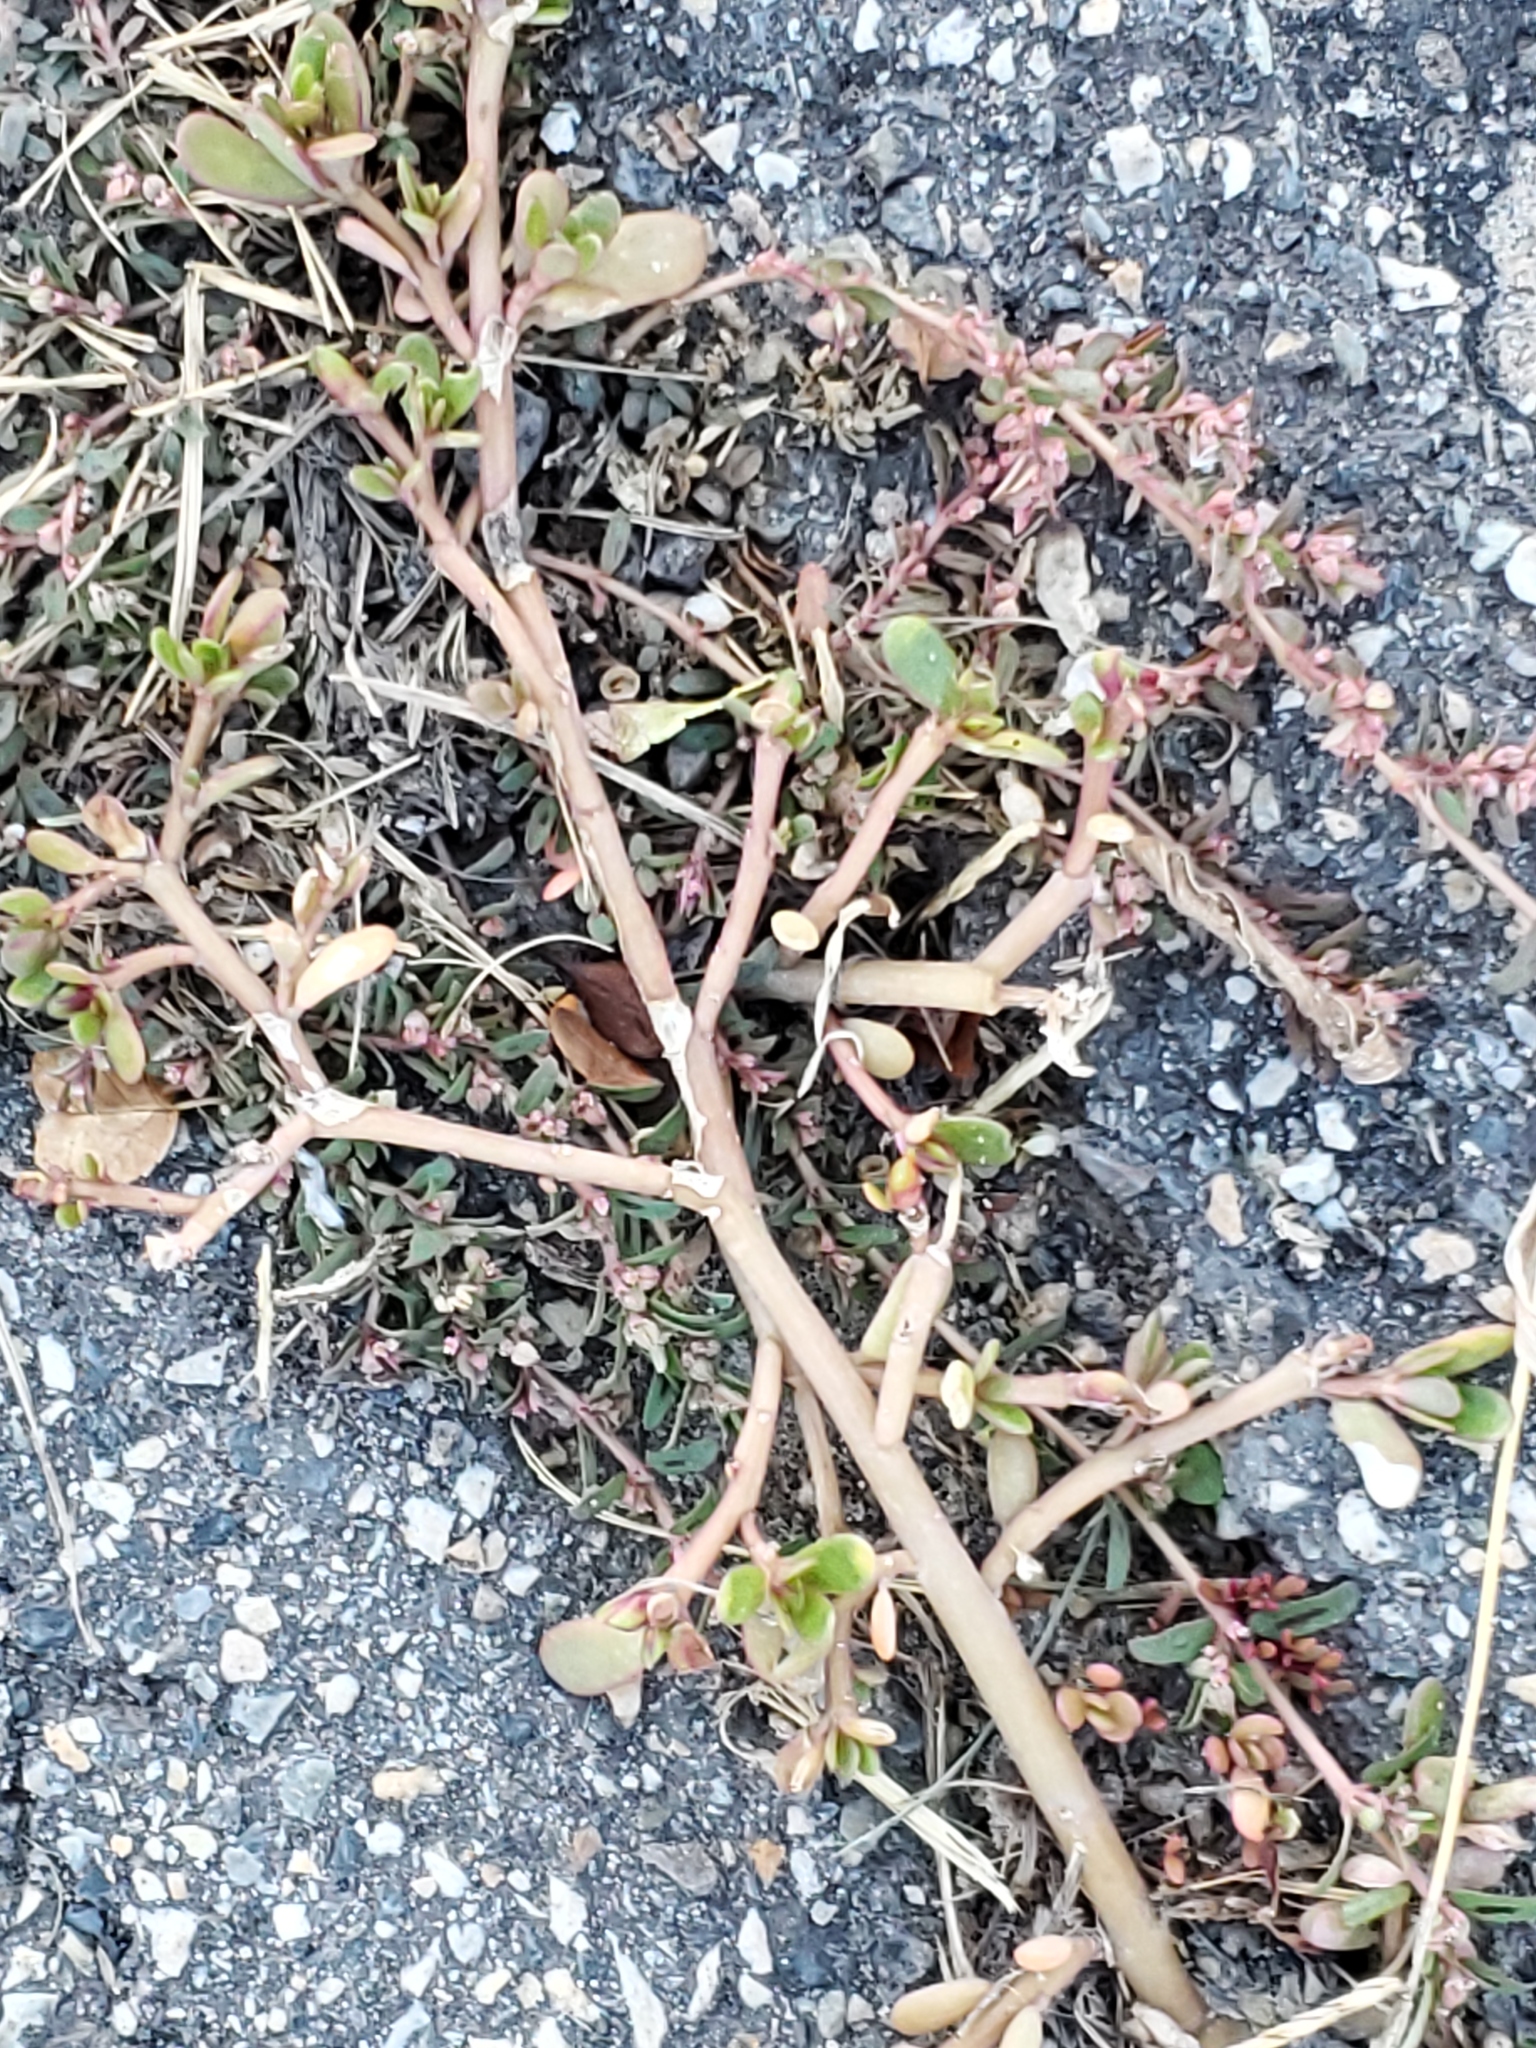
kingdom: Plantae
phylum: Tracheophyta
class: Magnoliopsida
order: Caryophyllales
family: Portulacaceae
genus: Portulaca
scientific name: Portulaca oleracea
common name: Common purslane
